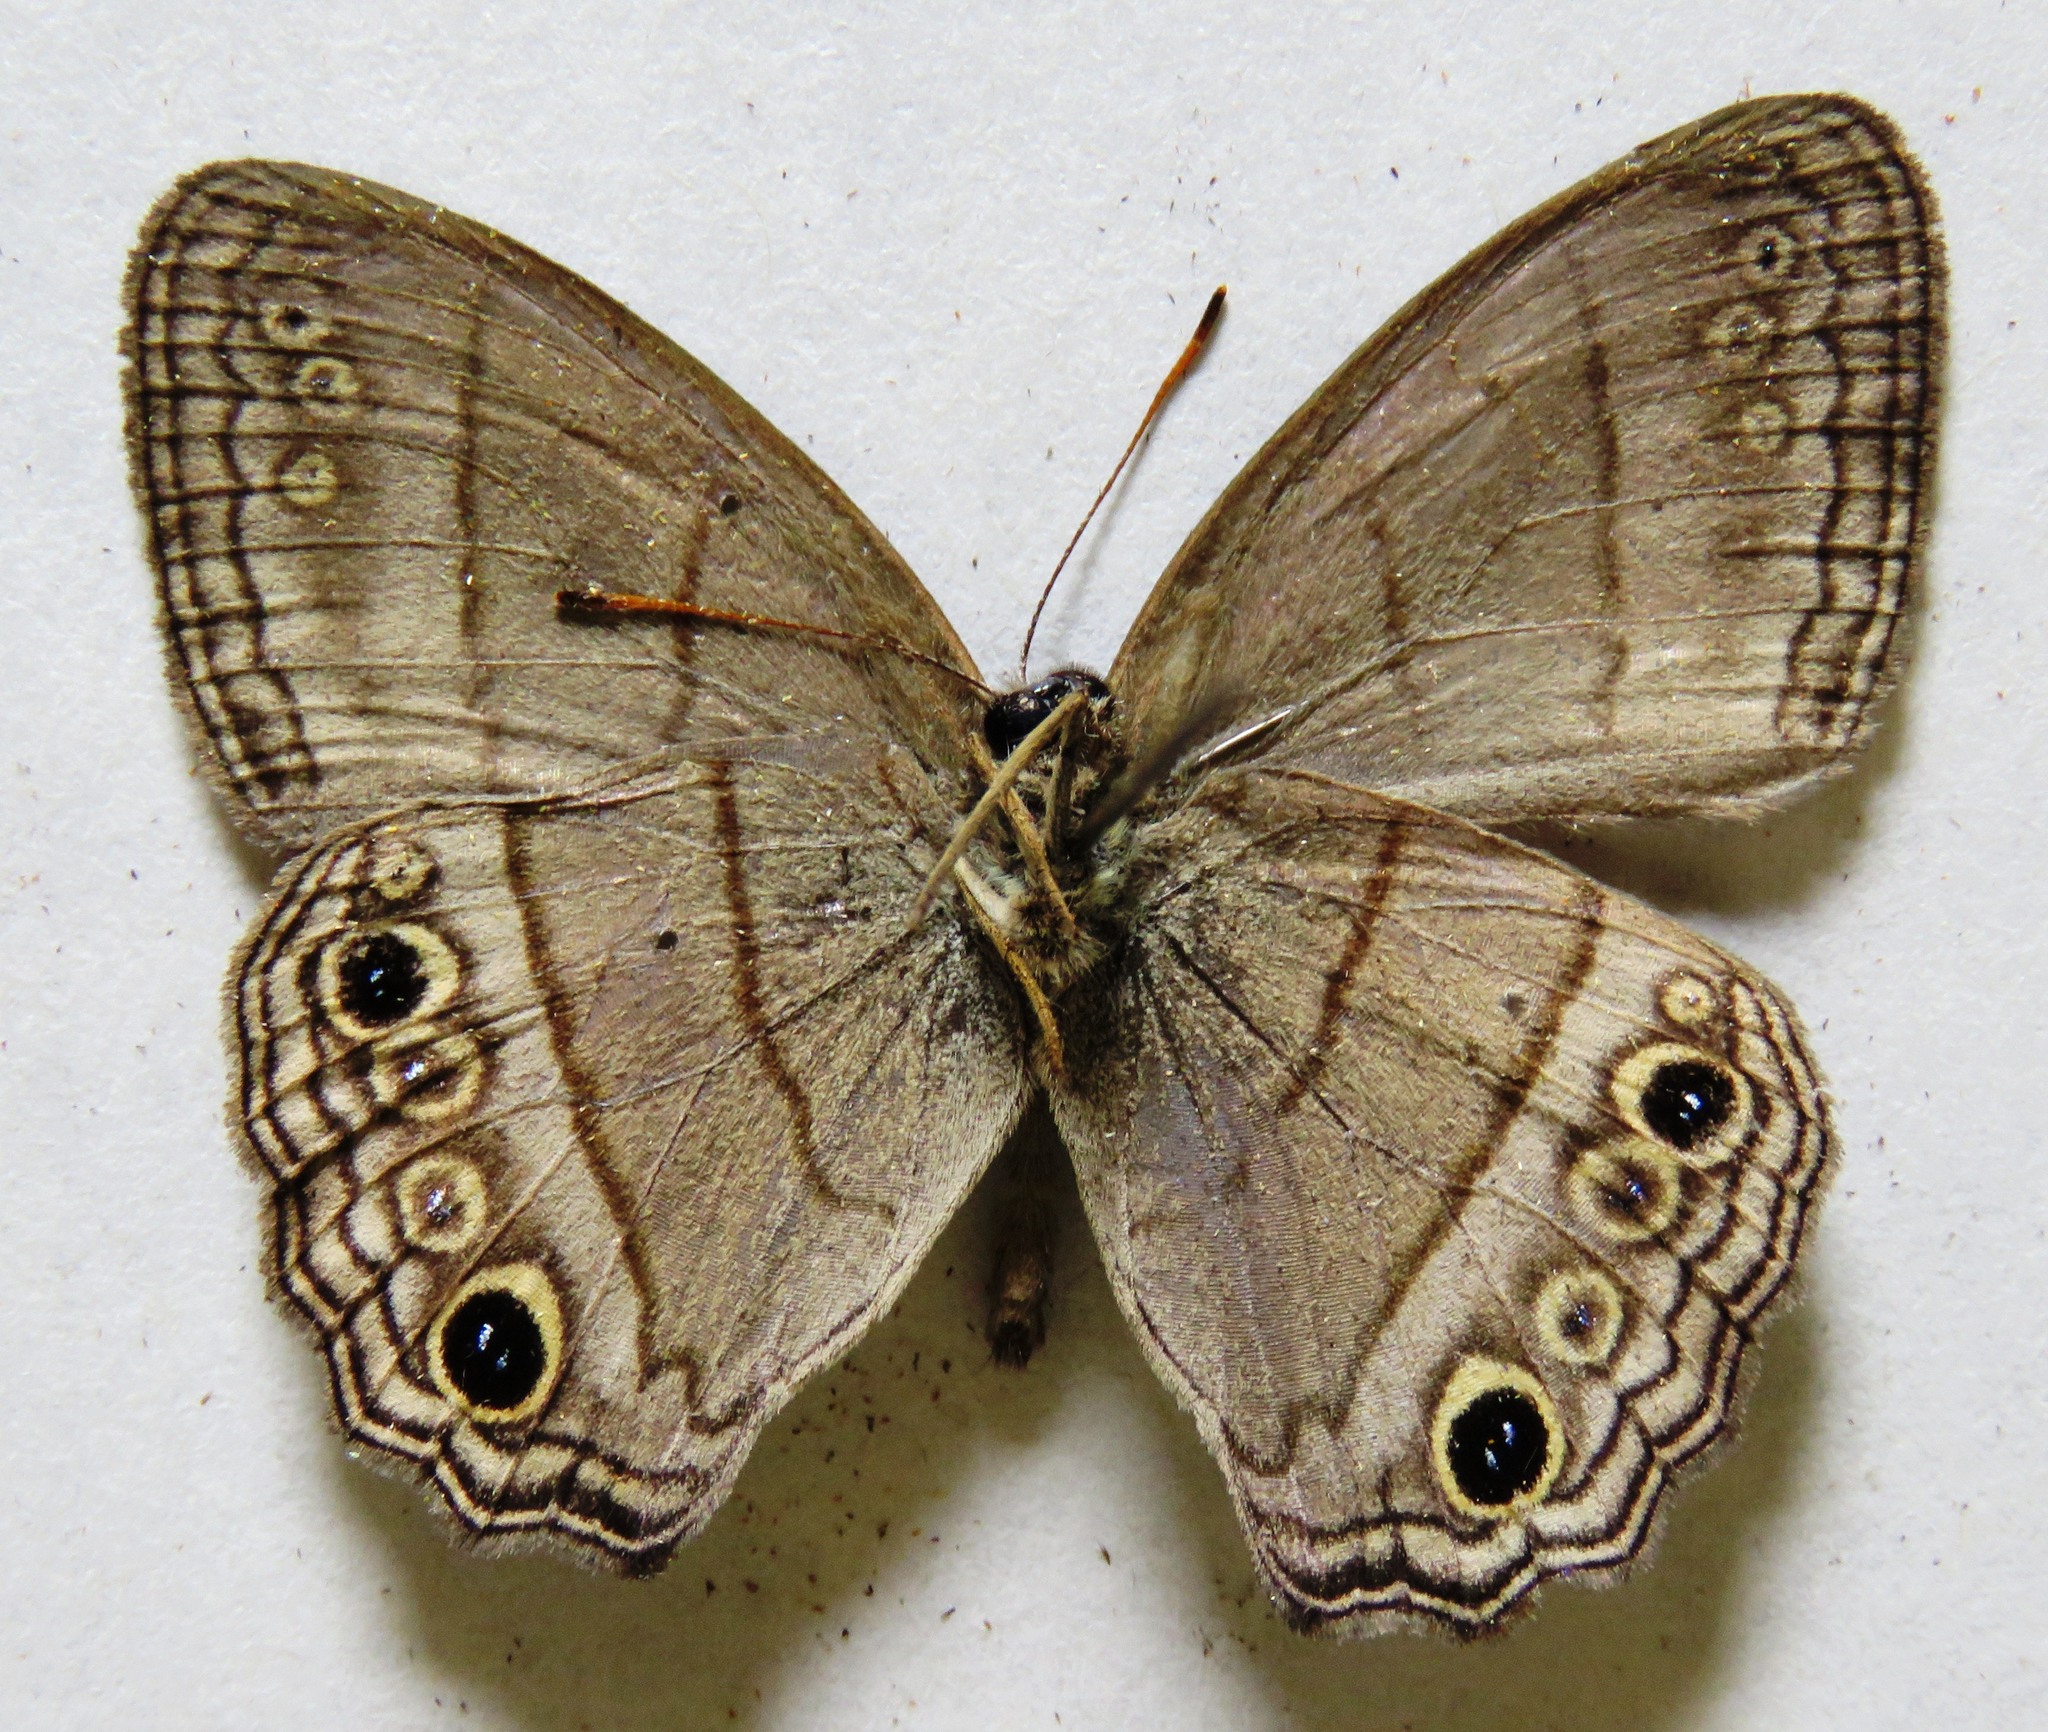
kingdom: Animalia
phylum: Arthropoda
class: Insecta
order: Lepidoptera
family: Nymphalidae
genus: Vareuptychia
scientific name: Vareuptychia similis
